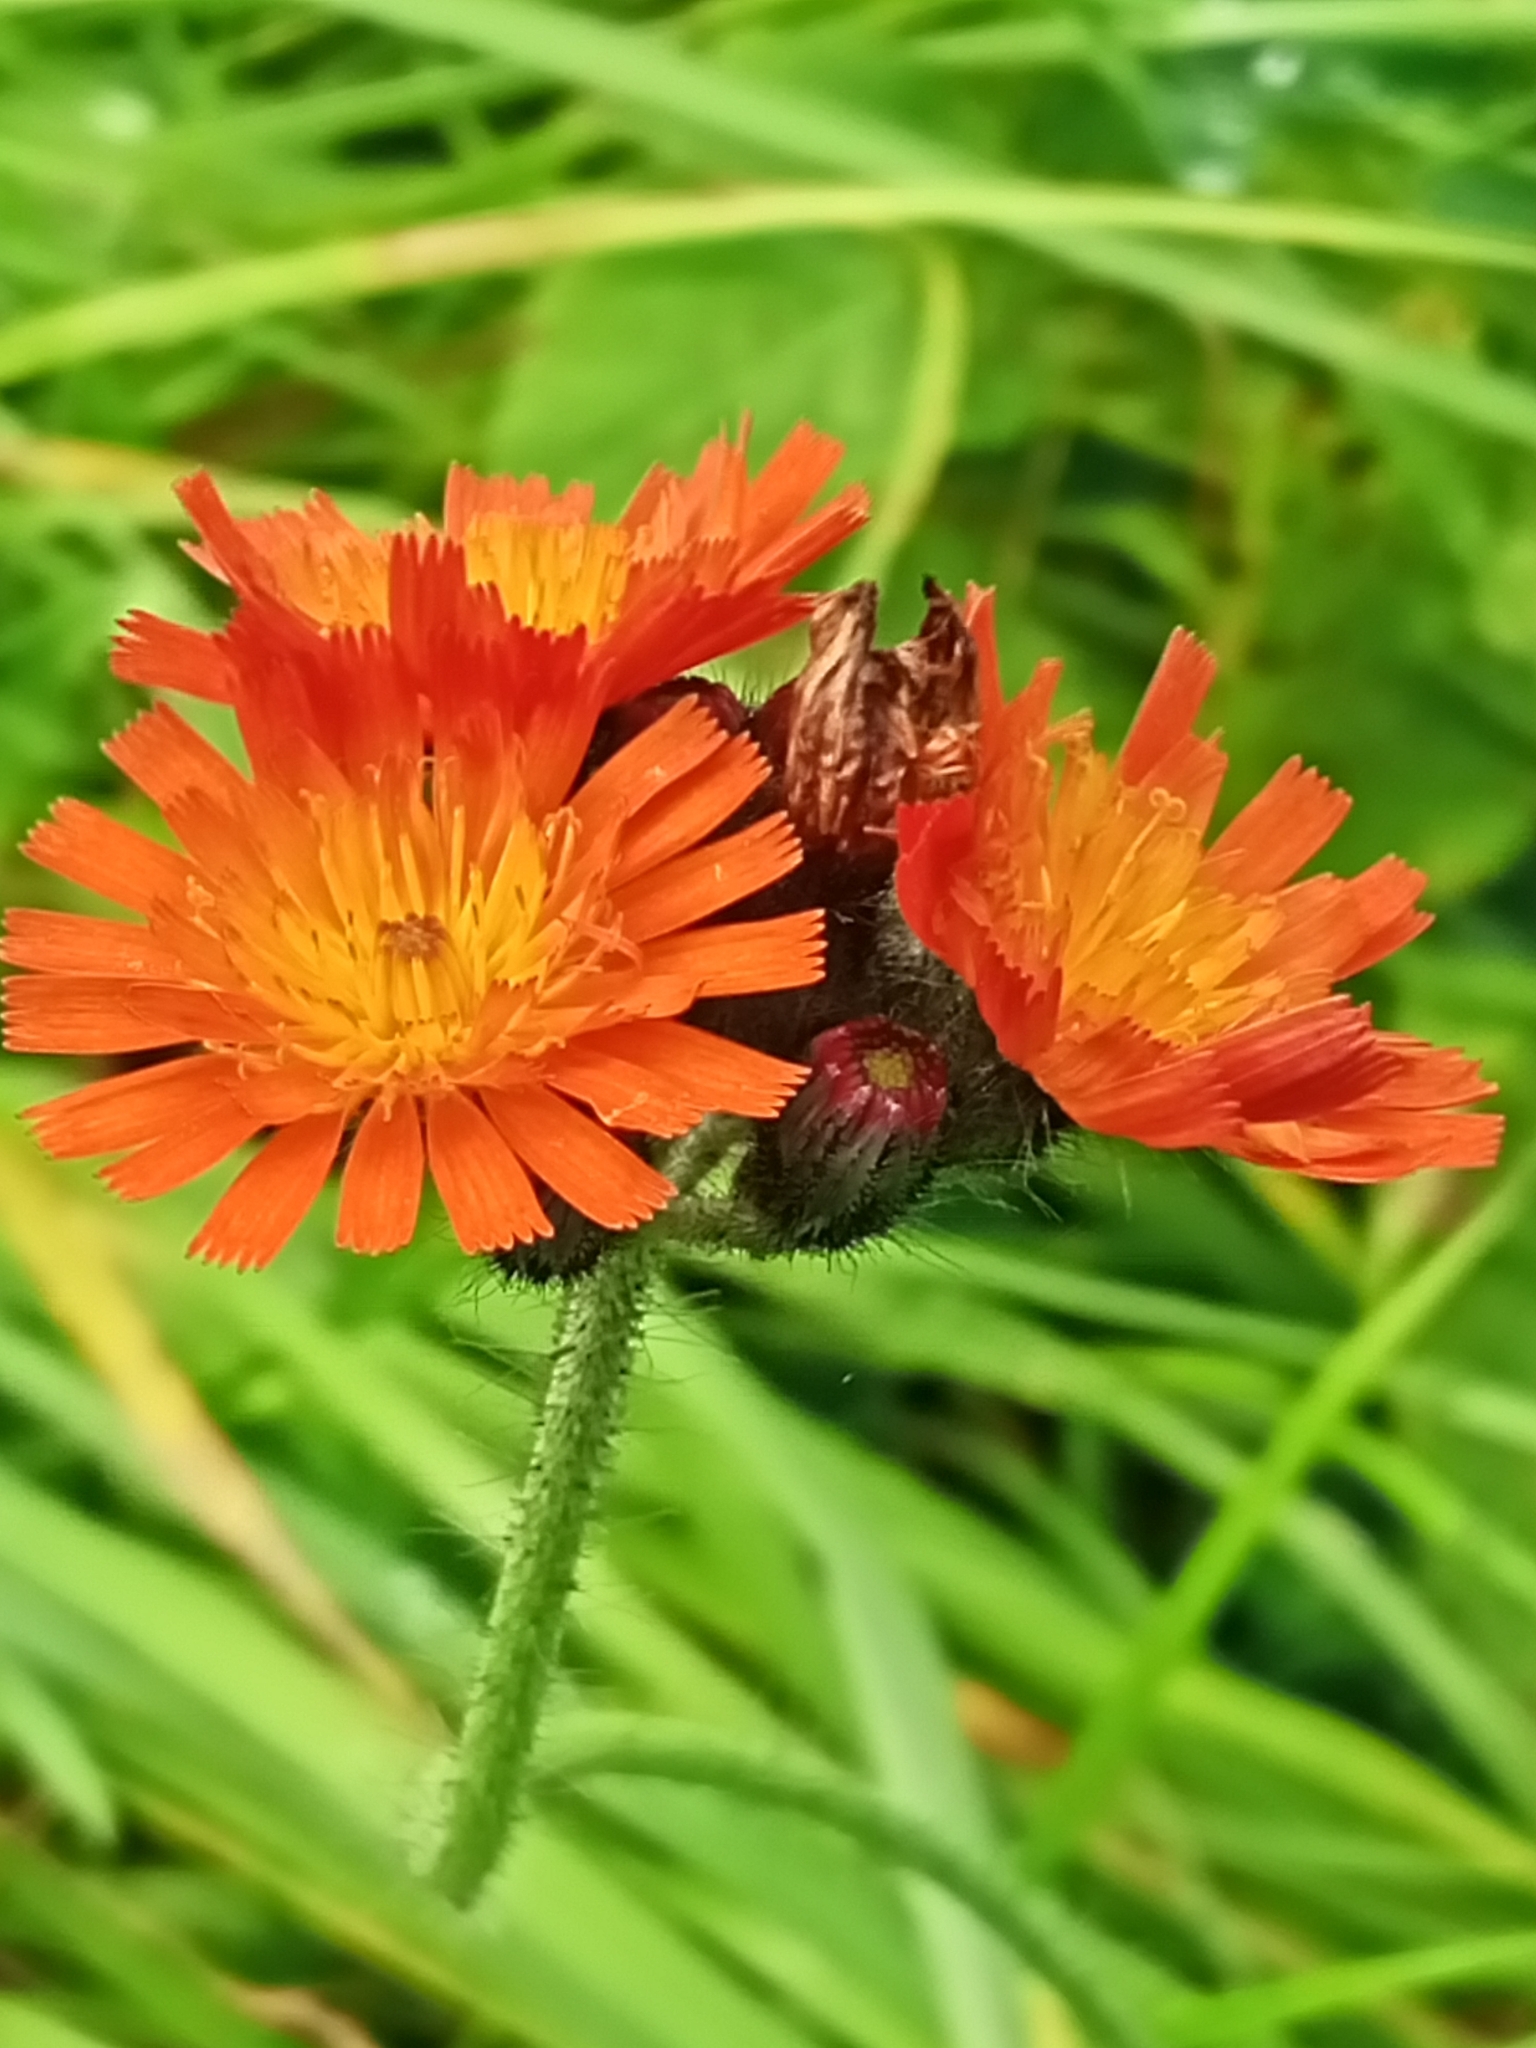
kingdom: Plantae
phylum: Tracheophyta
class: Magnoliopsida
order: Asterales
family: Asteraceae
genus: Pilosella
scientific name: Pilosella aurantiaca
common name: Fox-and-cubs
